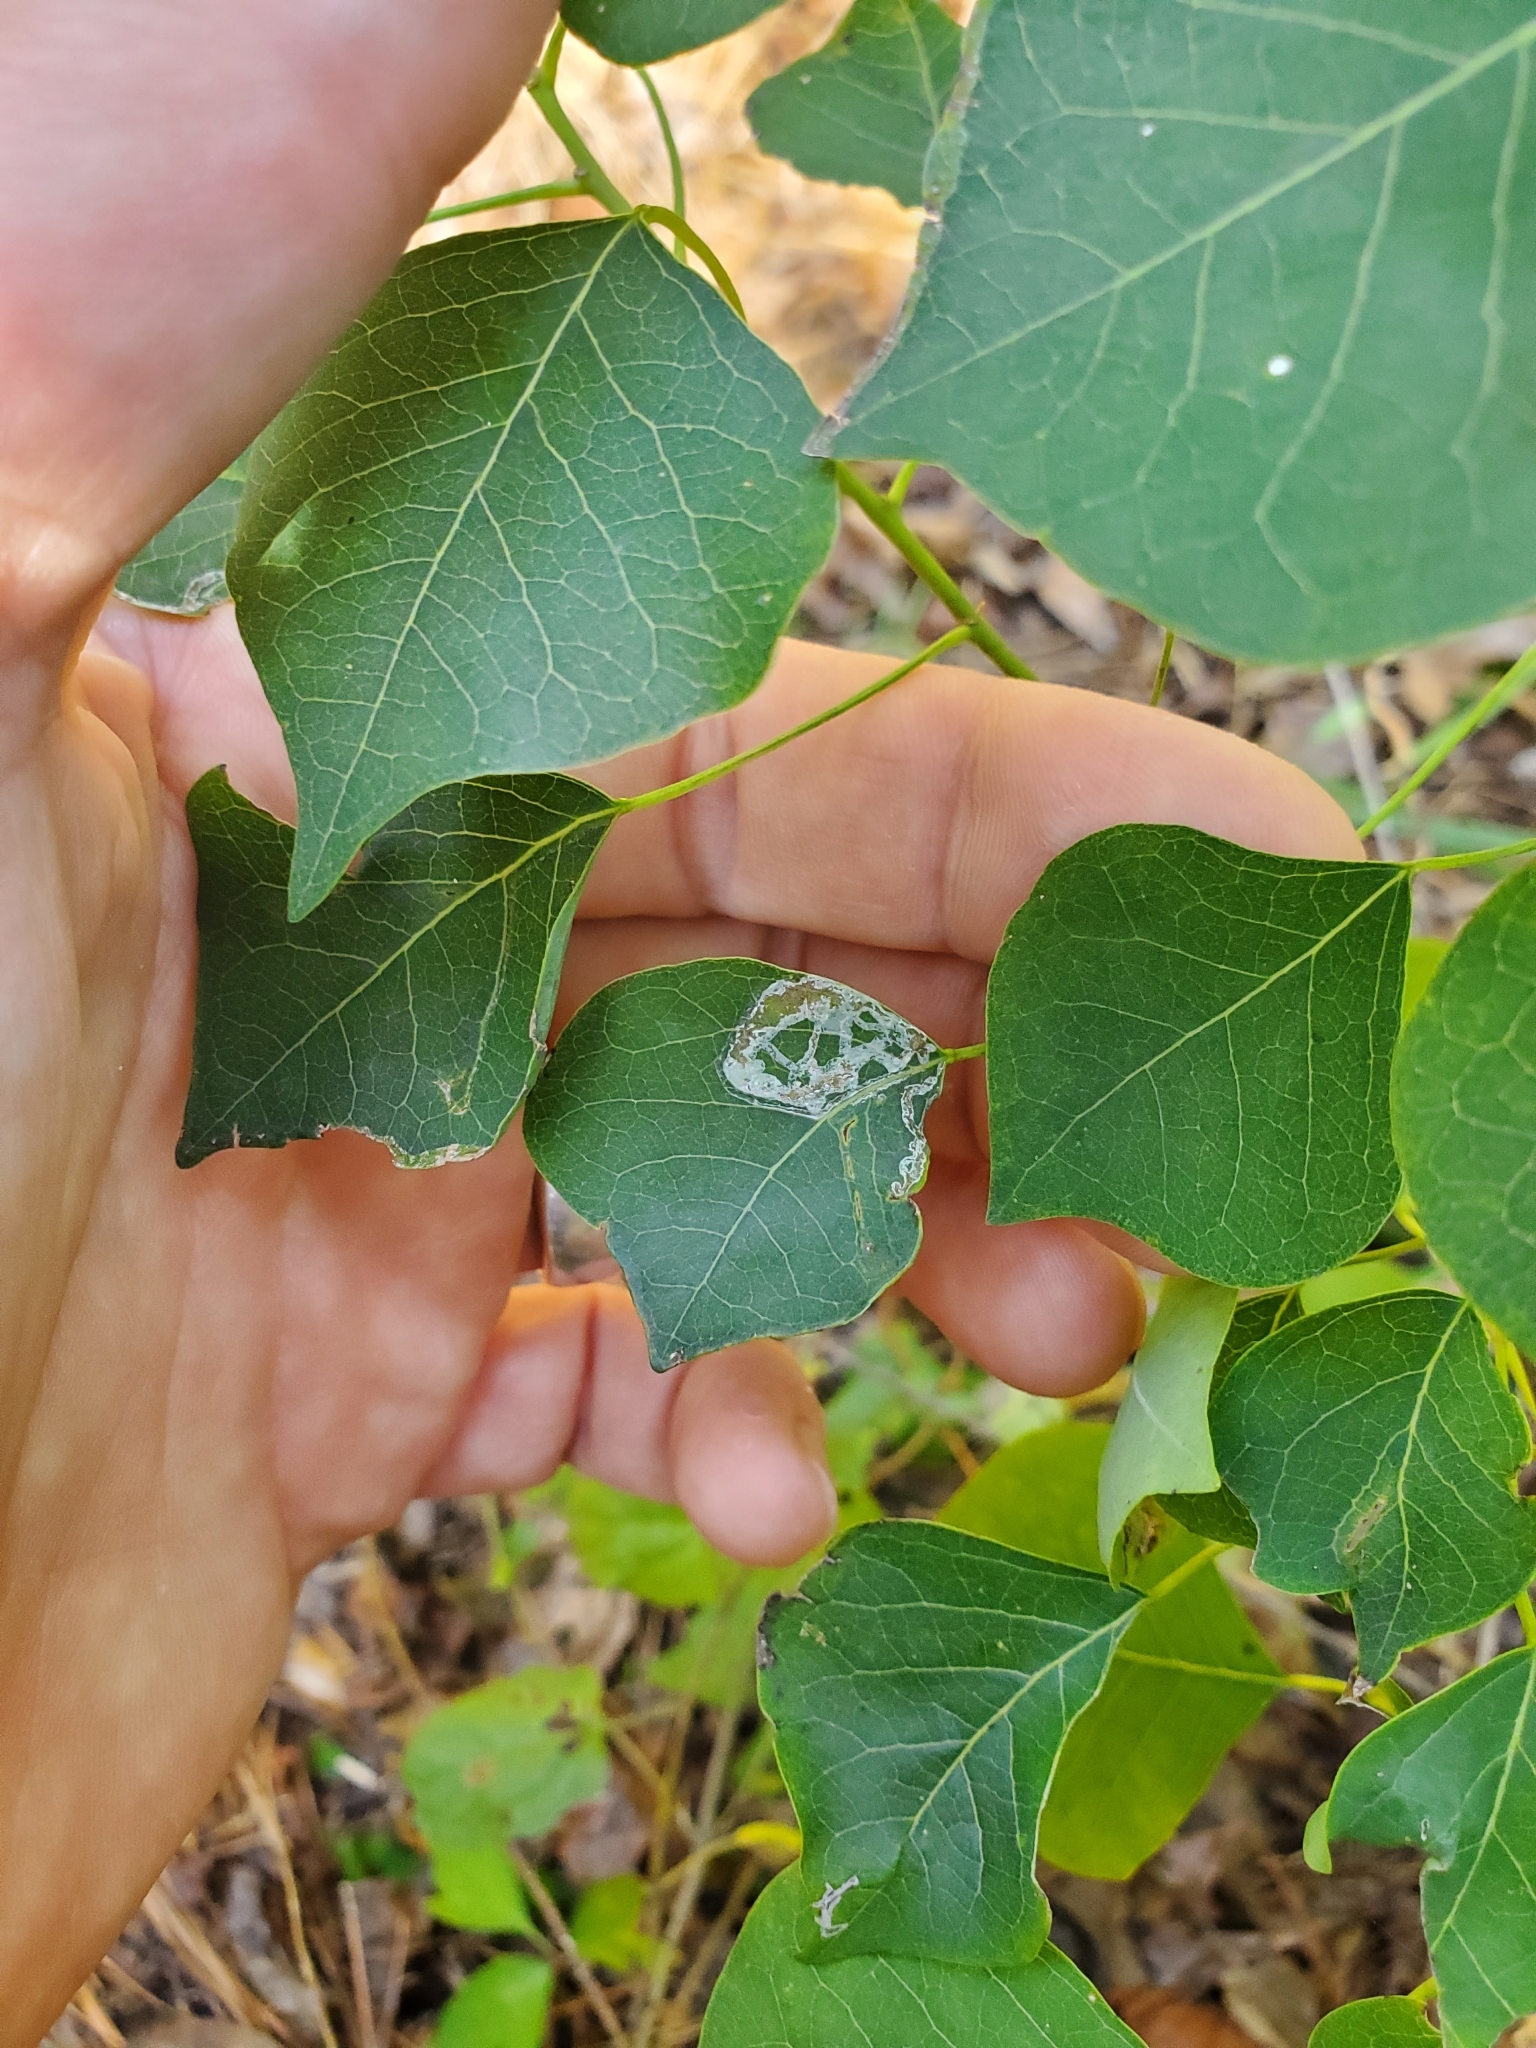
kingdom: Plantae
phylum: Tracheophyta
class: Magnoliopsida
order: Malpighiales
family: Euphorbiaceae
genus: Triadica
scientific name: Triadica sebifera
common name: Chinese tallow
